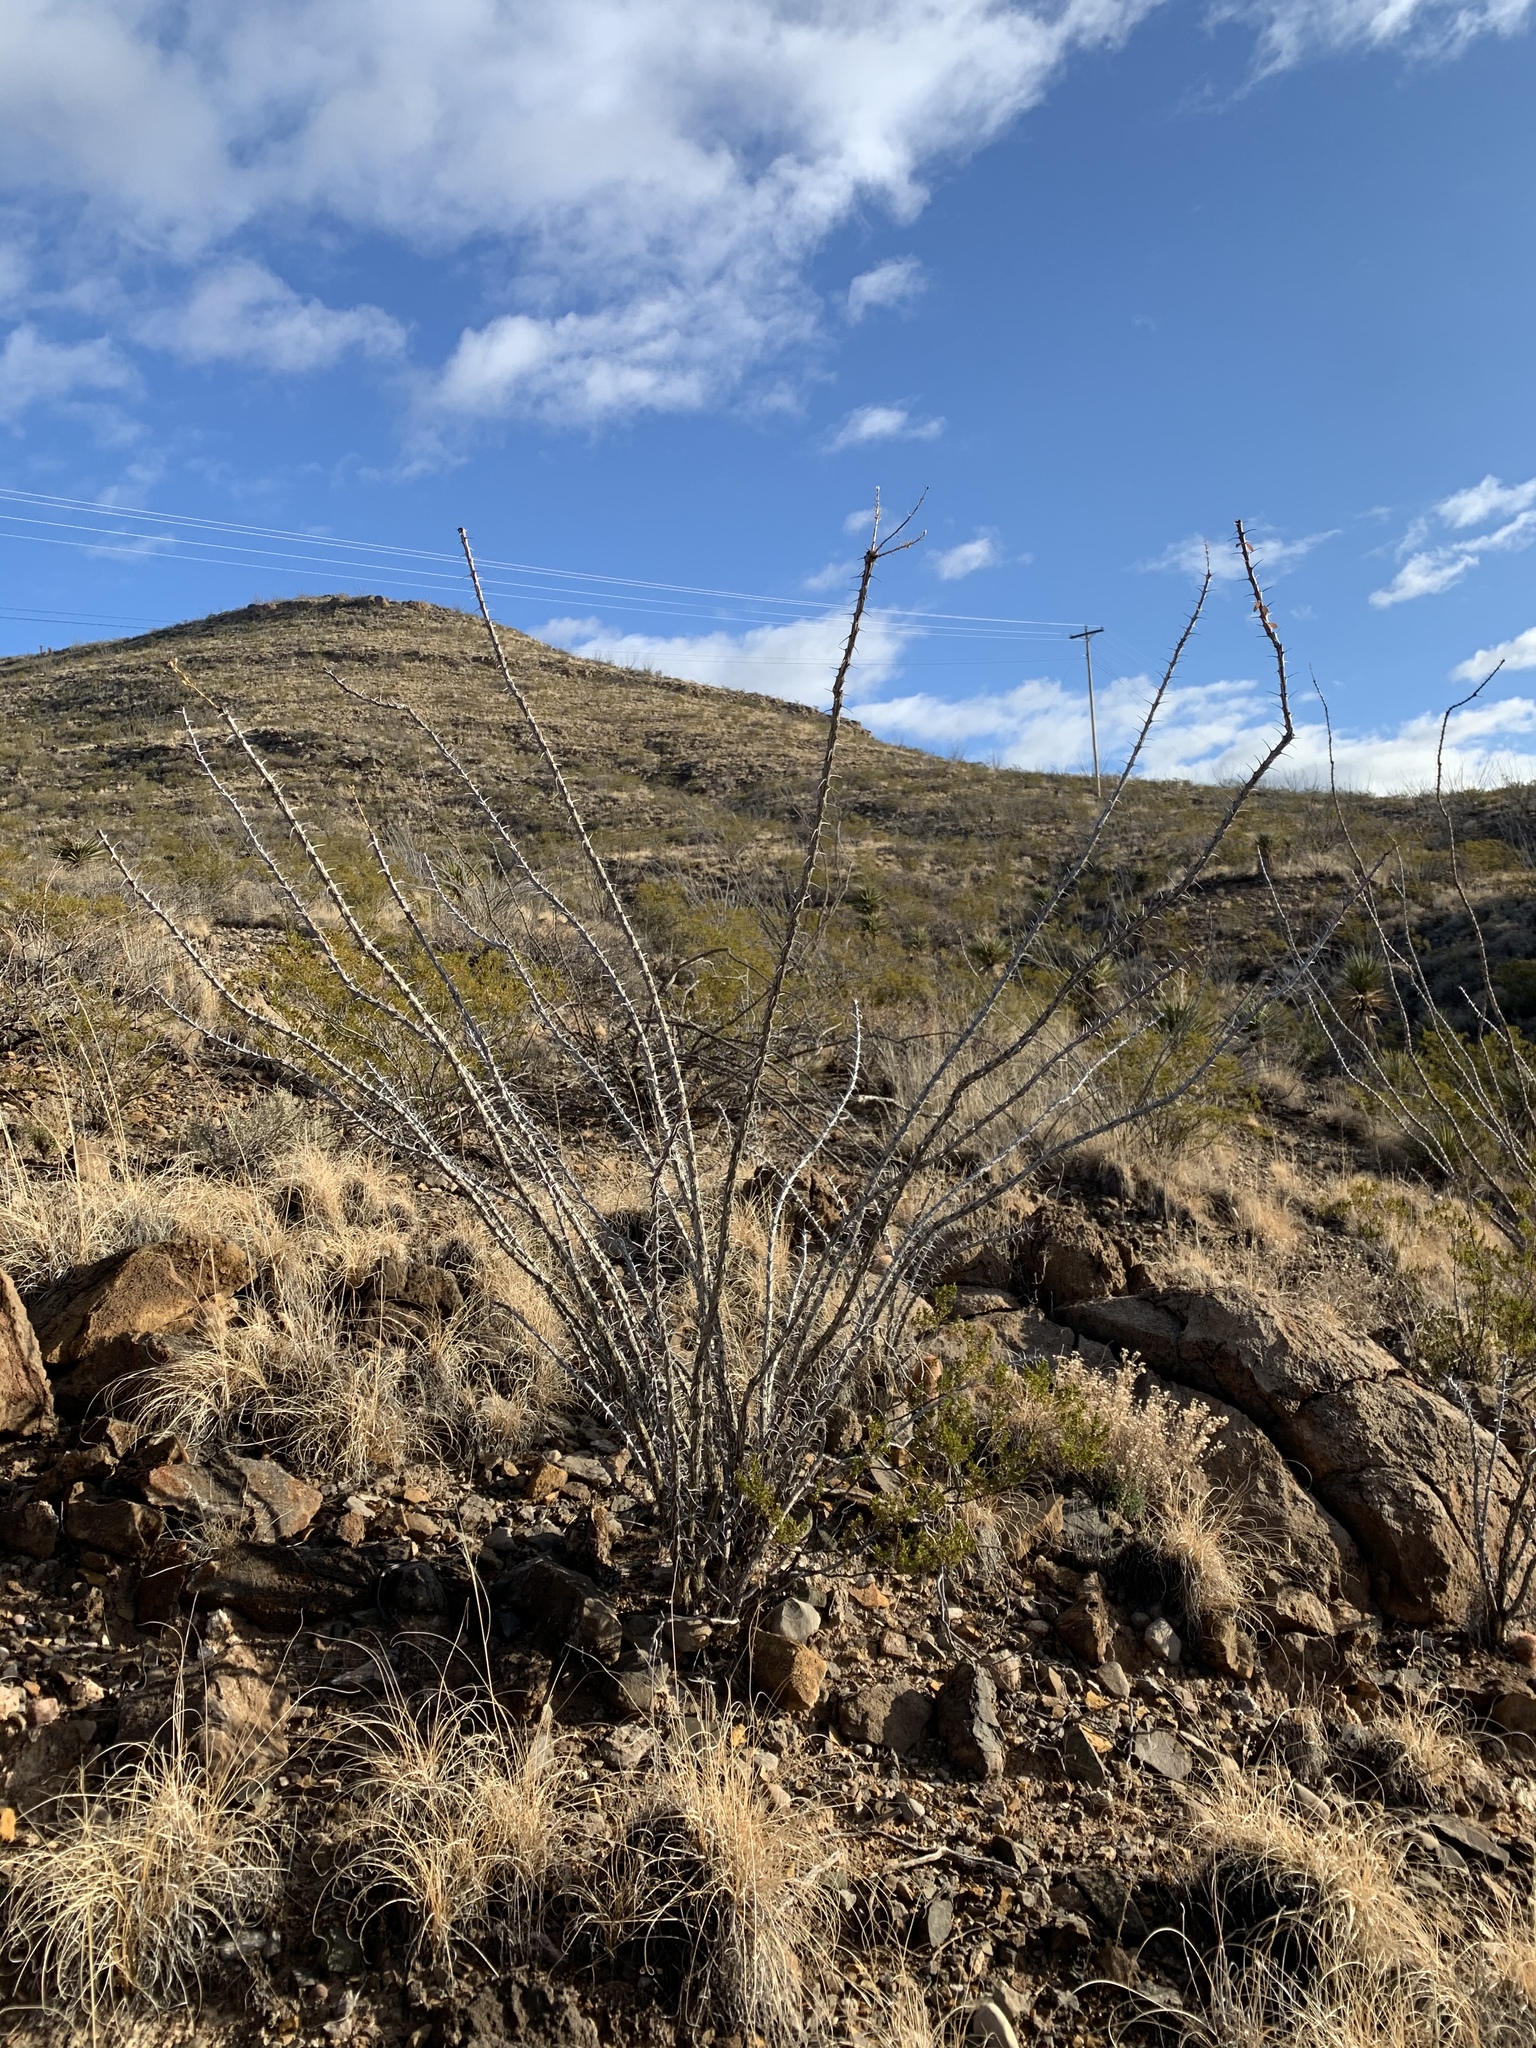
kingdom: Plantae
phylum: Tracheophyta
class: Magnoliopsida
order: Ericales
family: Fouquieriaceae
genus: Fouquieria
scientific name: Fouquieria splendens
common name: Vine-cactus
